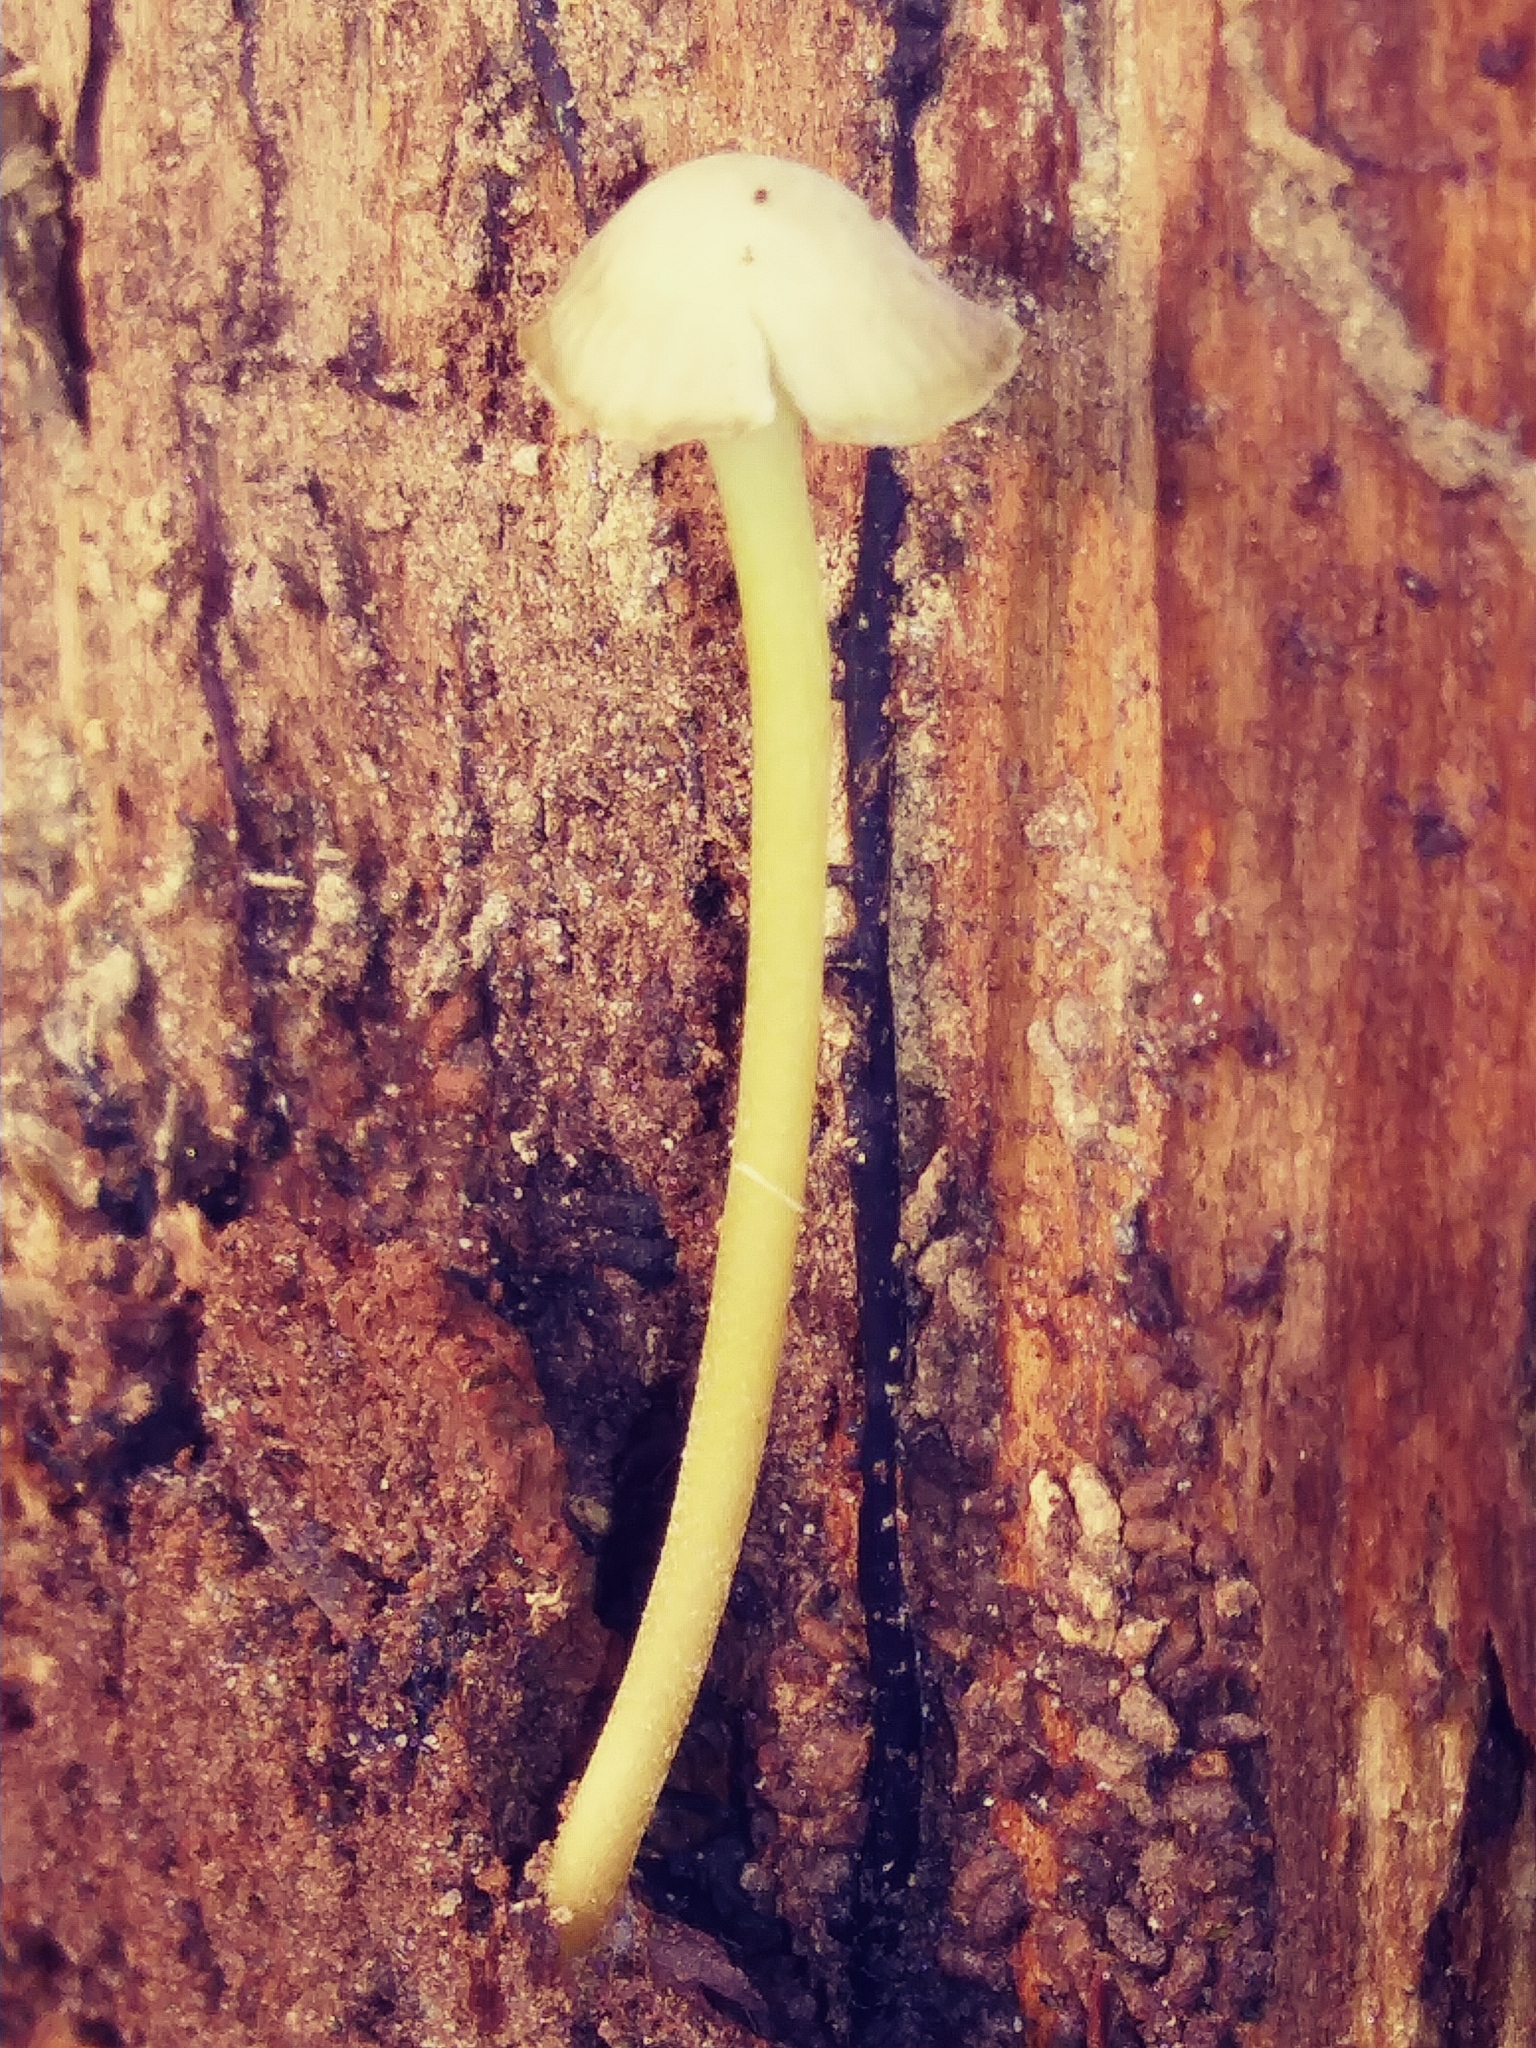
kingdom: Fungi
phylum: Basidiomycota
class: Agaricomycetes
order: Agaricales
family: Mycenaceae
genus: Mycena
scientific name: Mycena epipterygia
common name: Yellowleg bonnet
